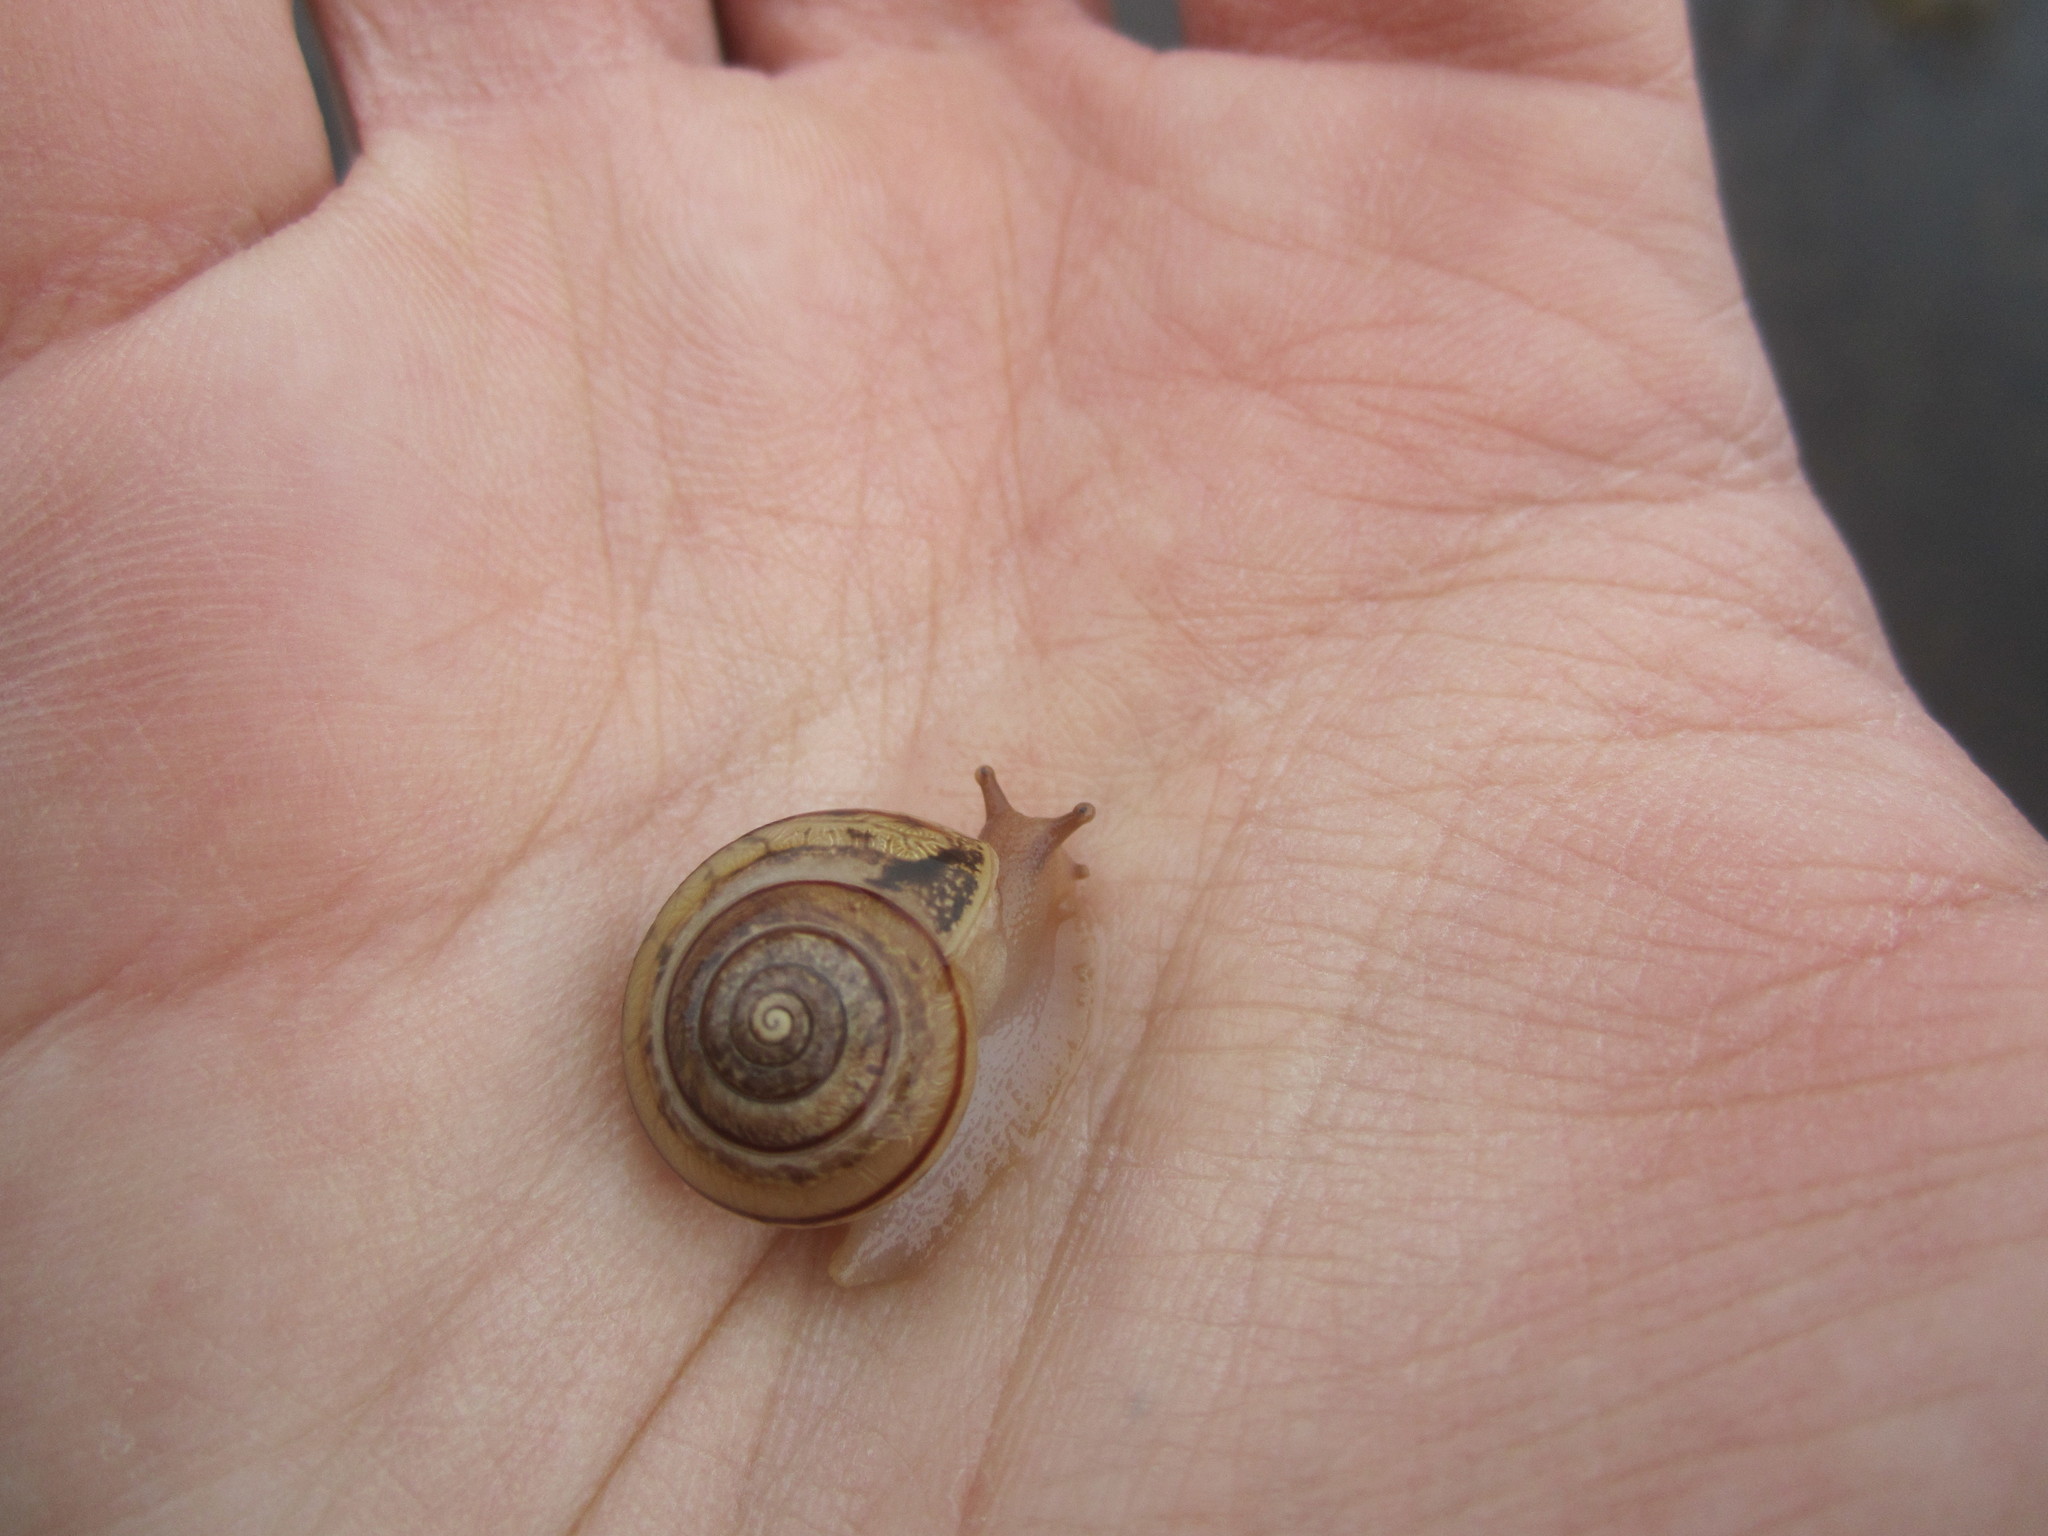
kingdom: Animalia
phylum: Mollusca
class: Gastropoda
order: Stylommatophora
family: Hygromiidae
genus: Portugala
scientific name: Portugala inchoata
